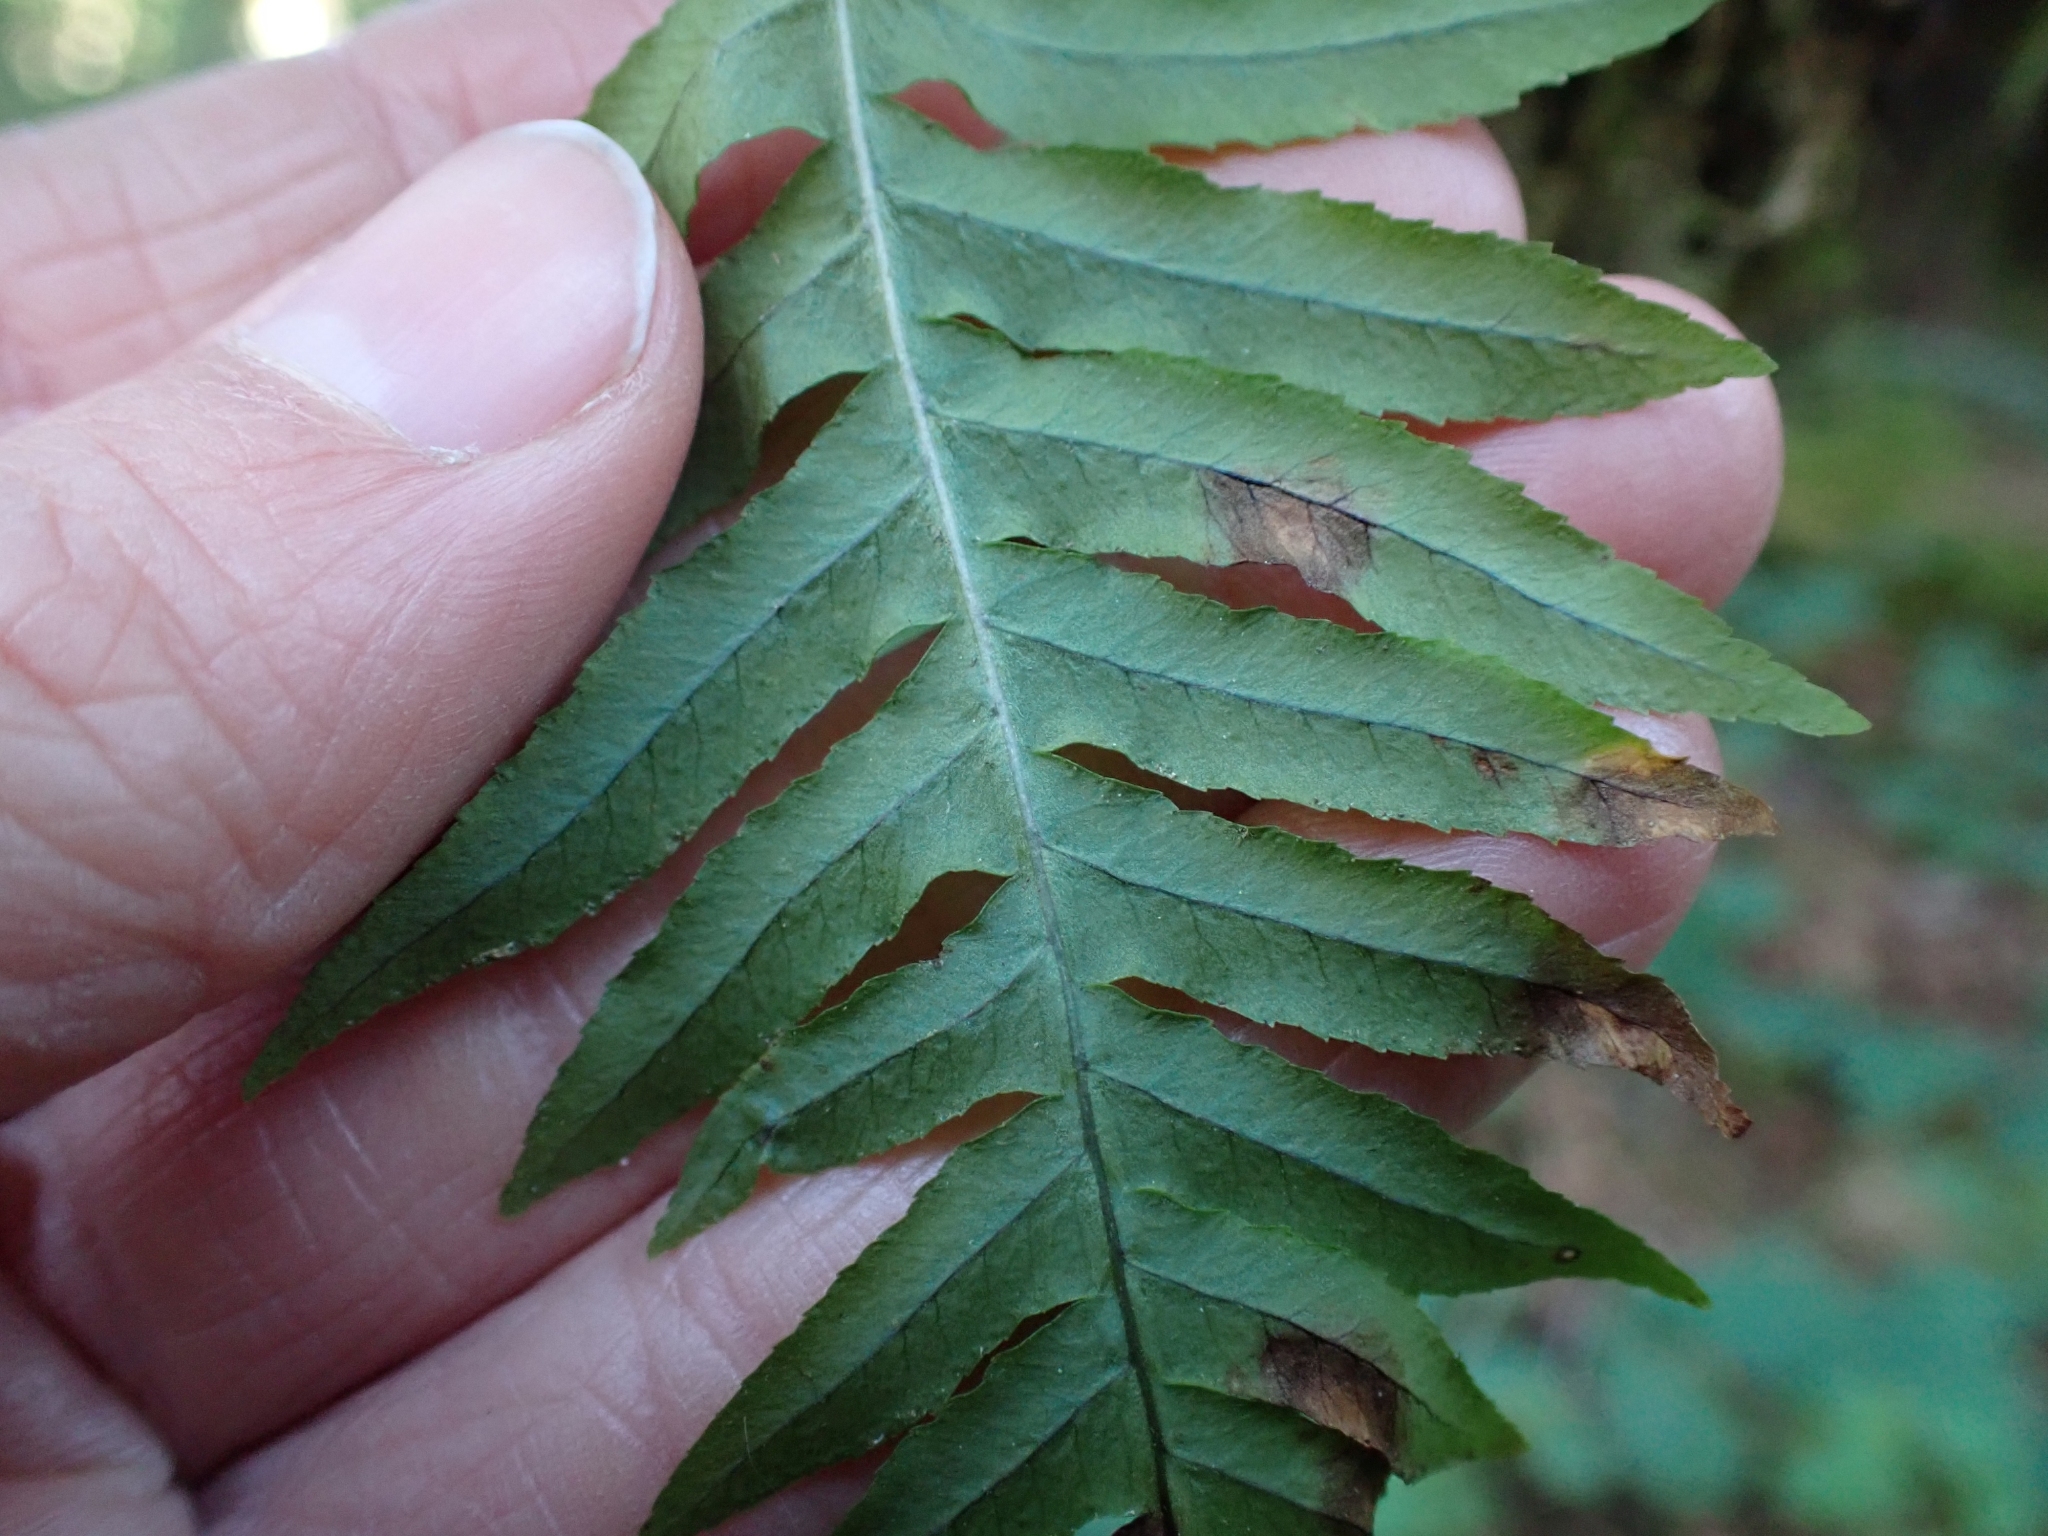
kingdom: Plantae
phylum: Tracheophyta
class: Polypodiopsida
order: Polypodiales
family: Polypodiaceae
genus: Polypodium
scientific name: Polypodium glycyrrhiza
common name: Licorice fern
